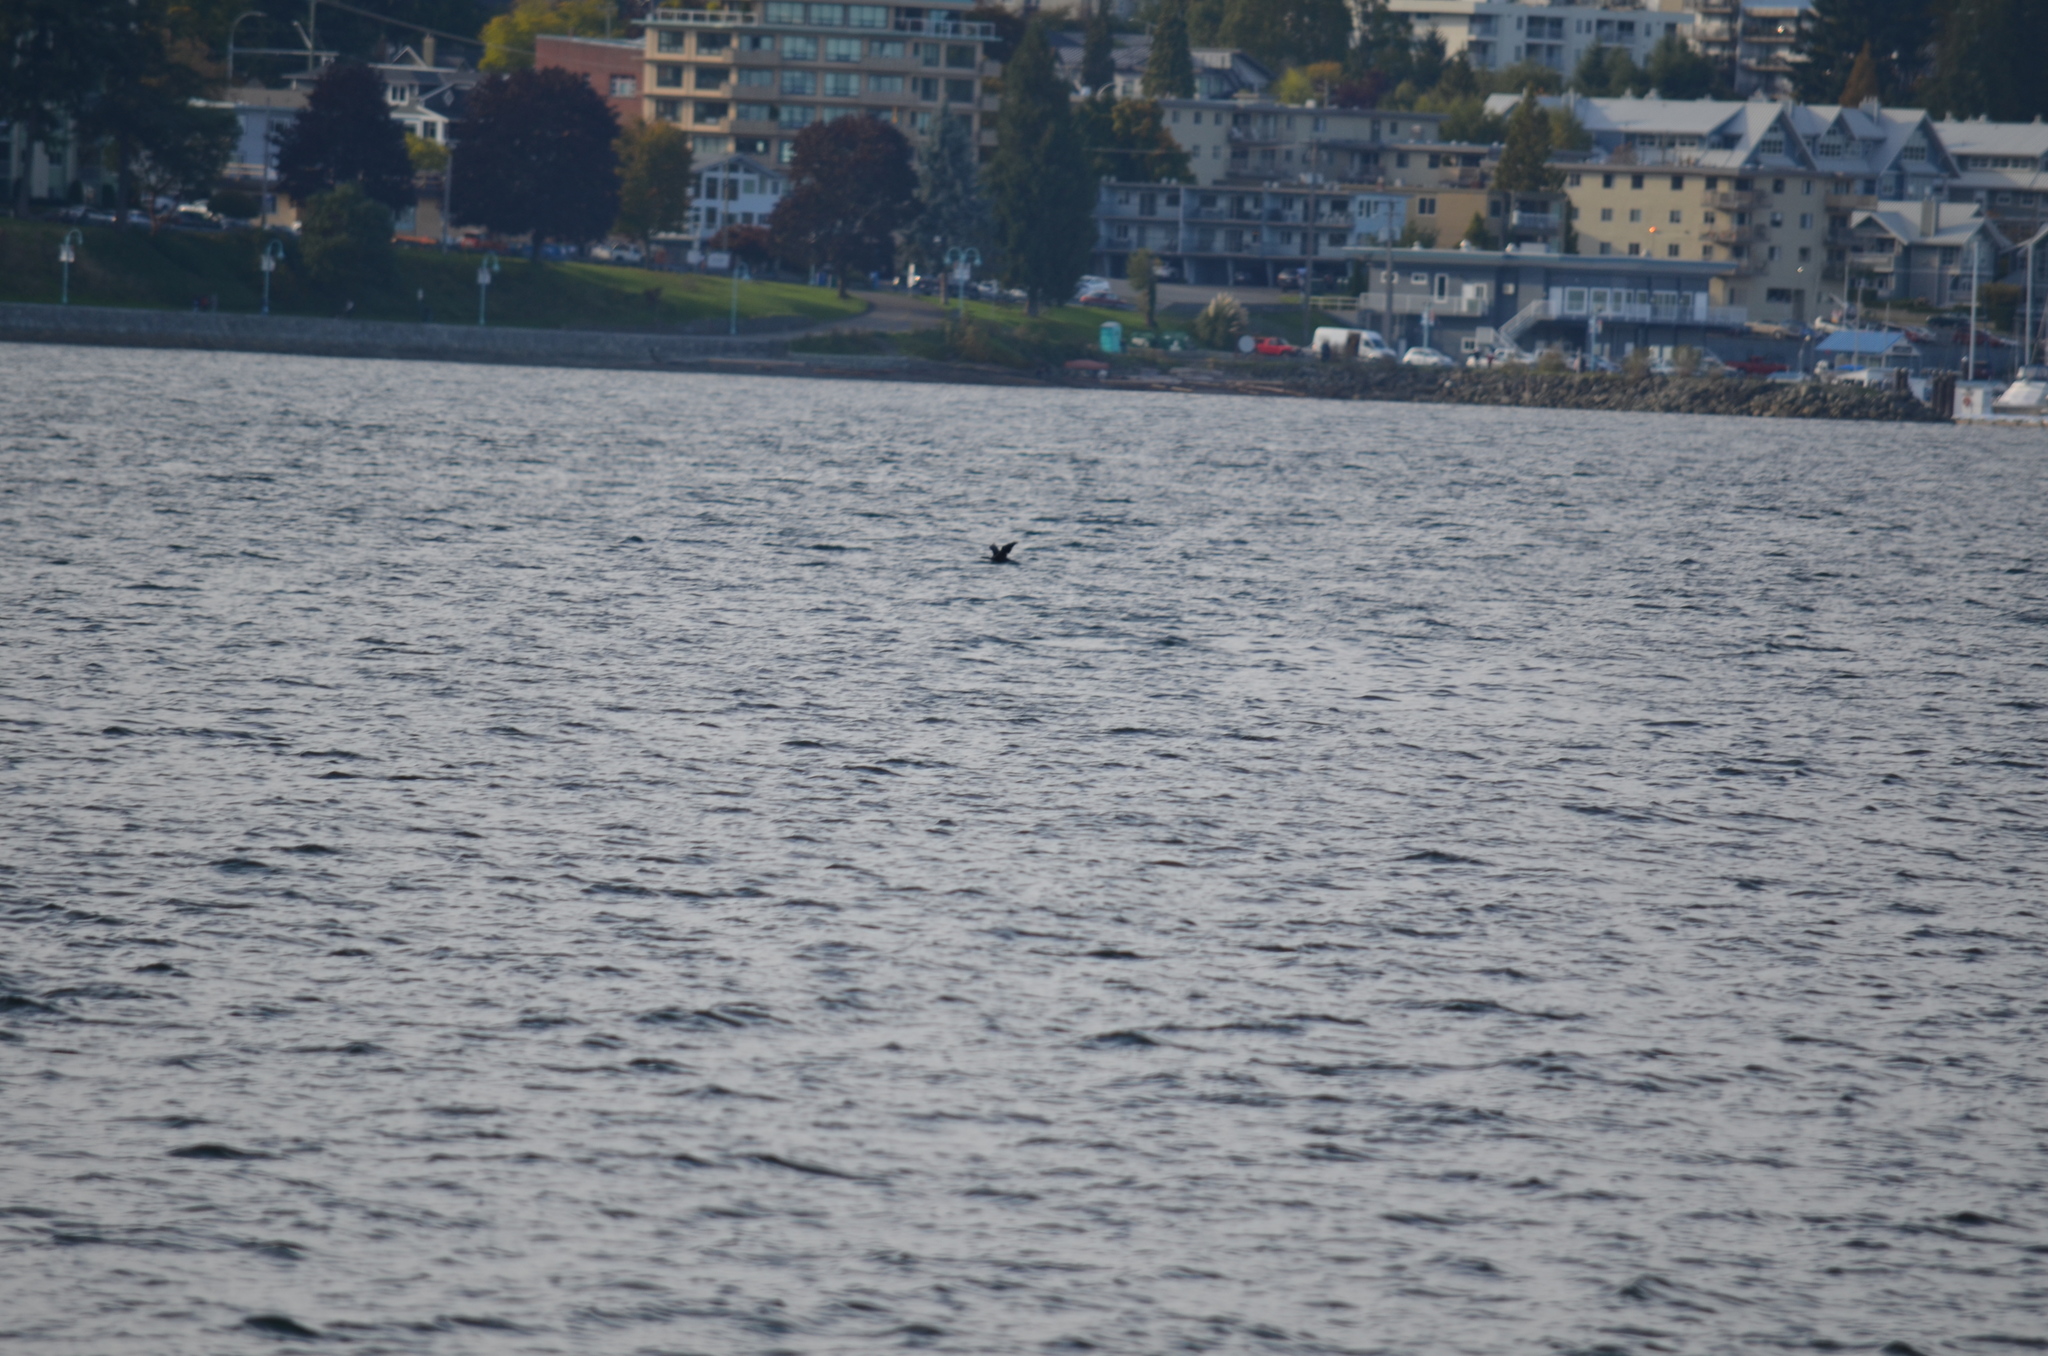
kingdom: Animalia
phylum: Chordata
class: Aves
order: Suliformes
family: Phalacrocoracidae
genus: Phalacrocorax
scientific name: Phalacrocorax pelagicus
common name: Pelagic cormorant
